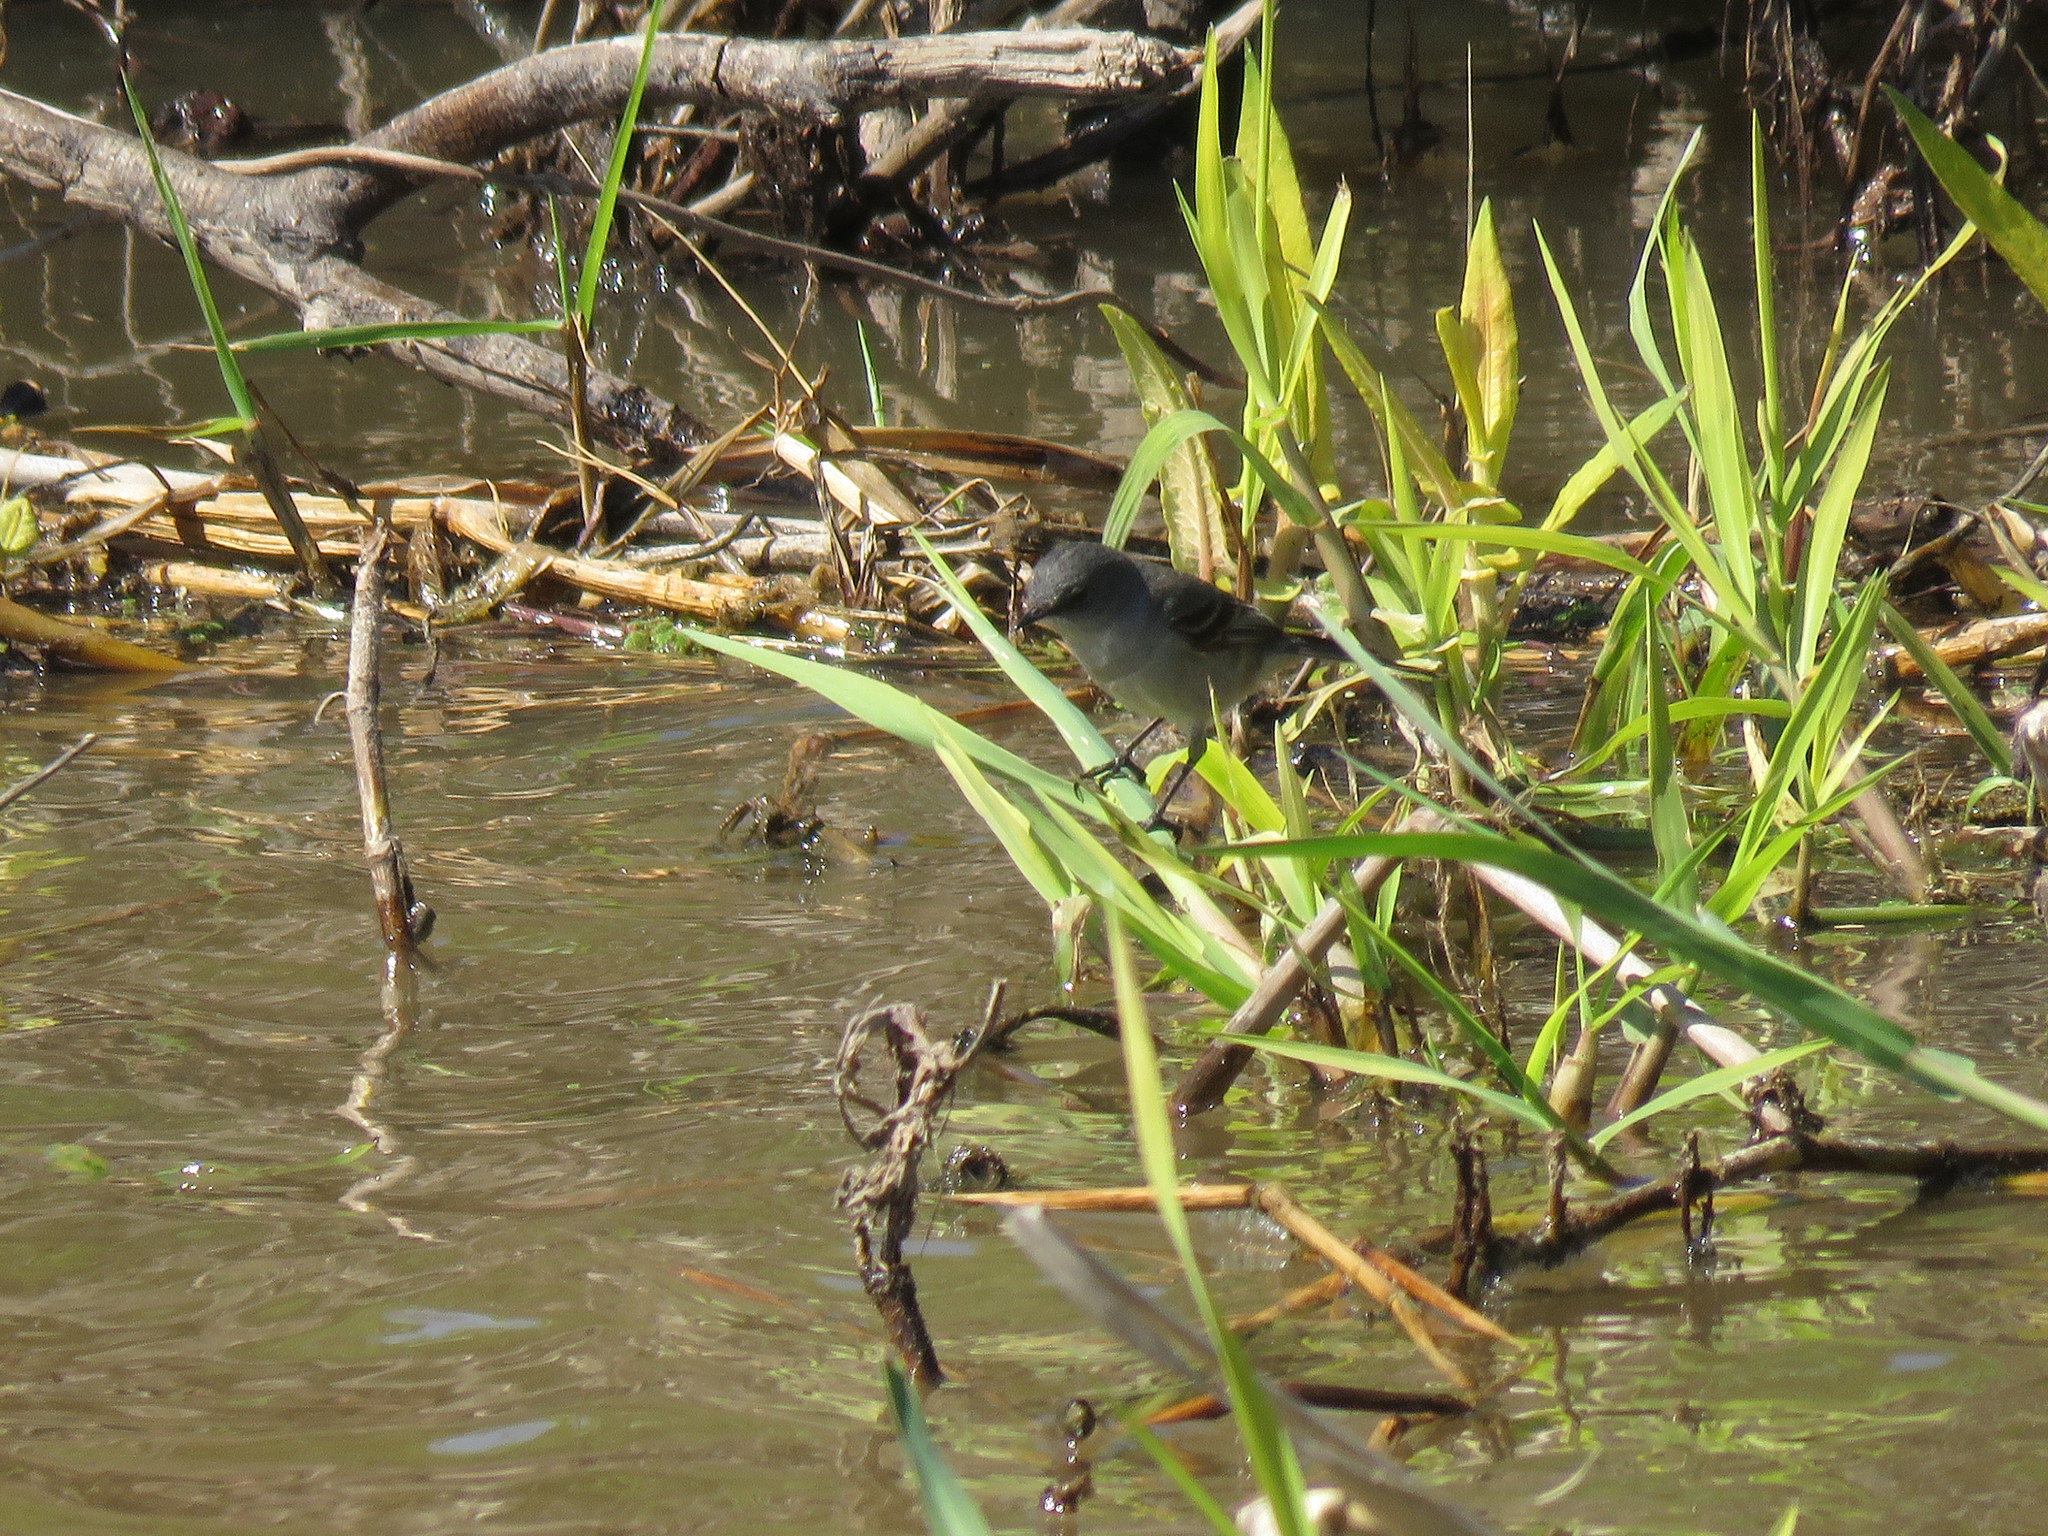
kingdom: Animalia
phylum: Chordata
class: Aves
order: Passeriformes
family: Tyrannidae
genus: Serpophaga
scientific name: Serpophaga nigricans
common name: Sooty tyrannulet
